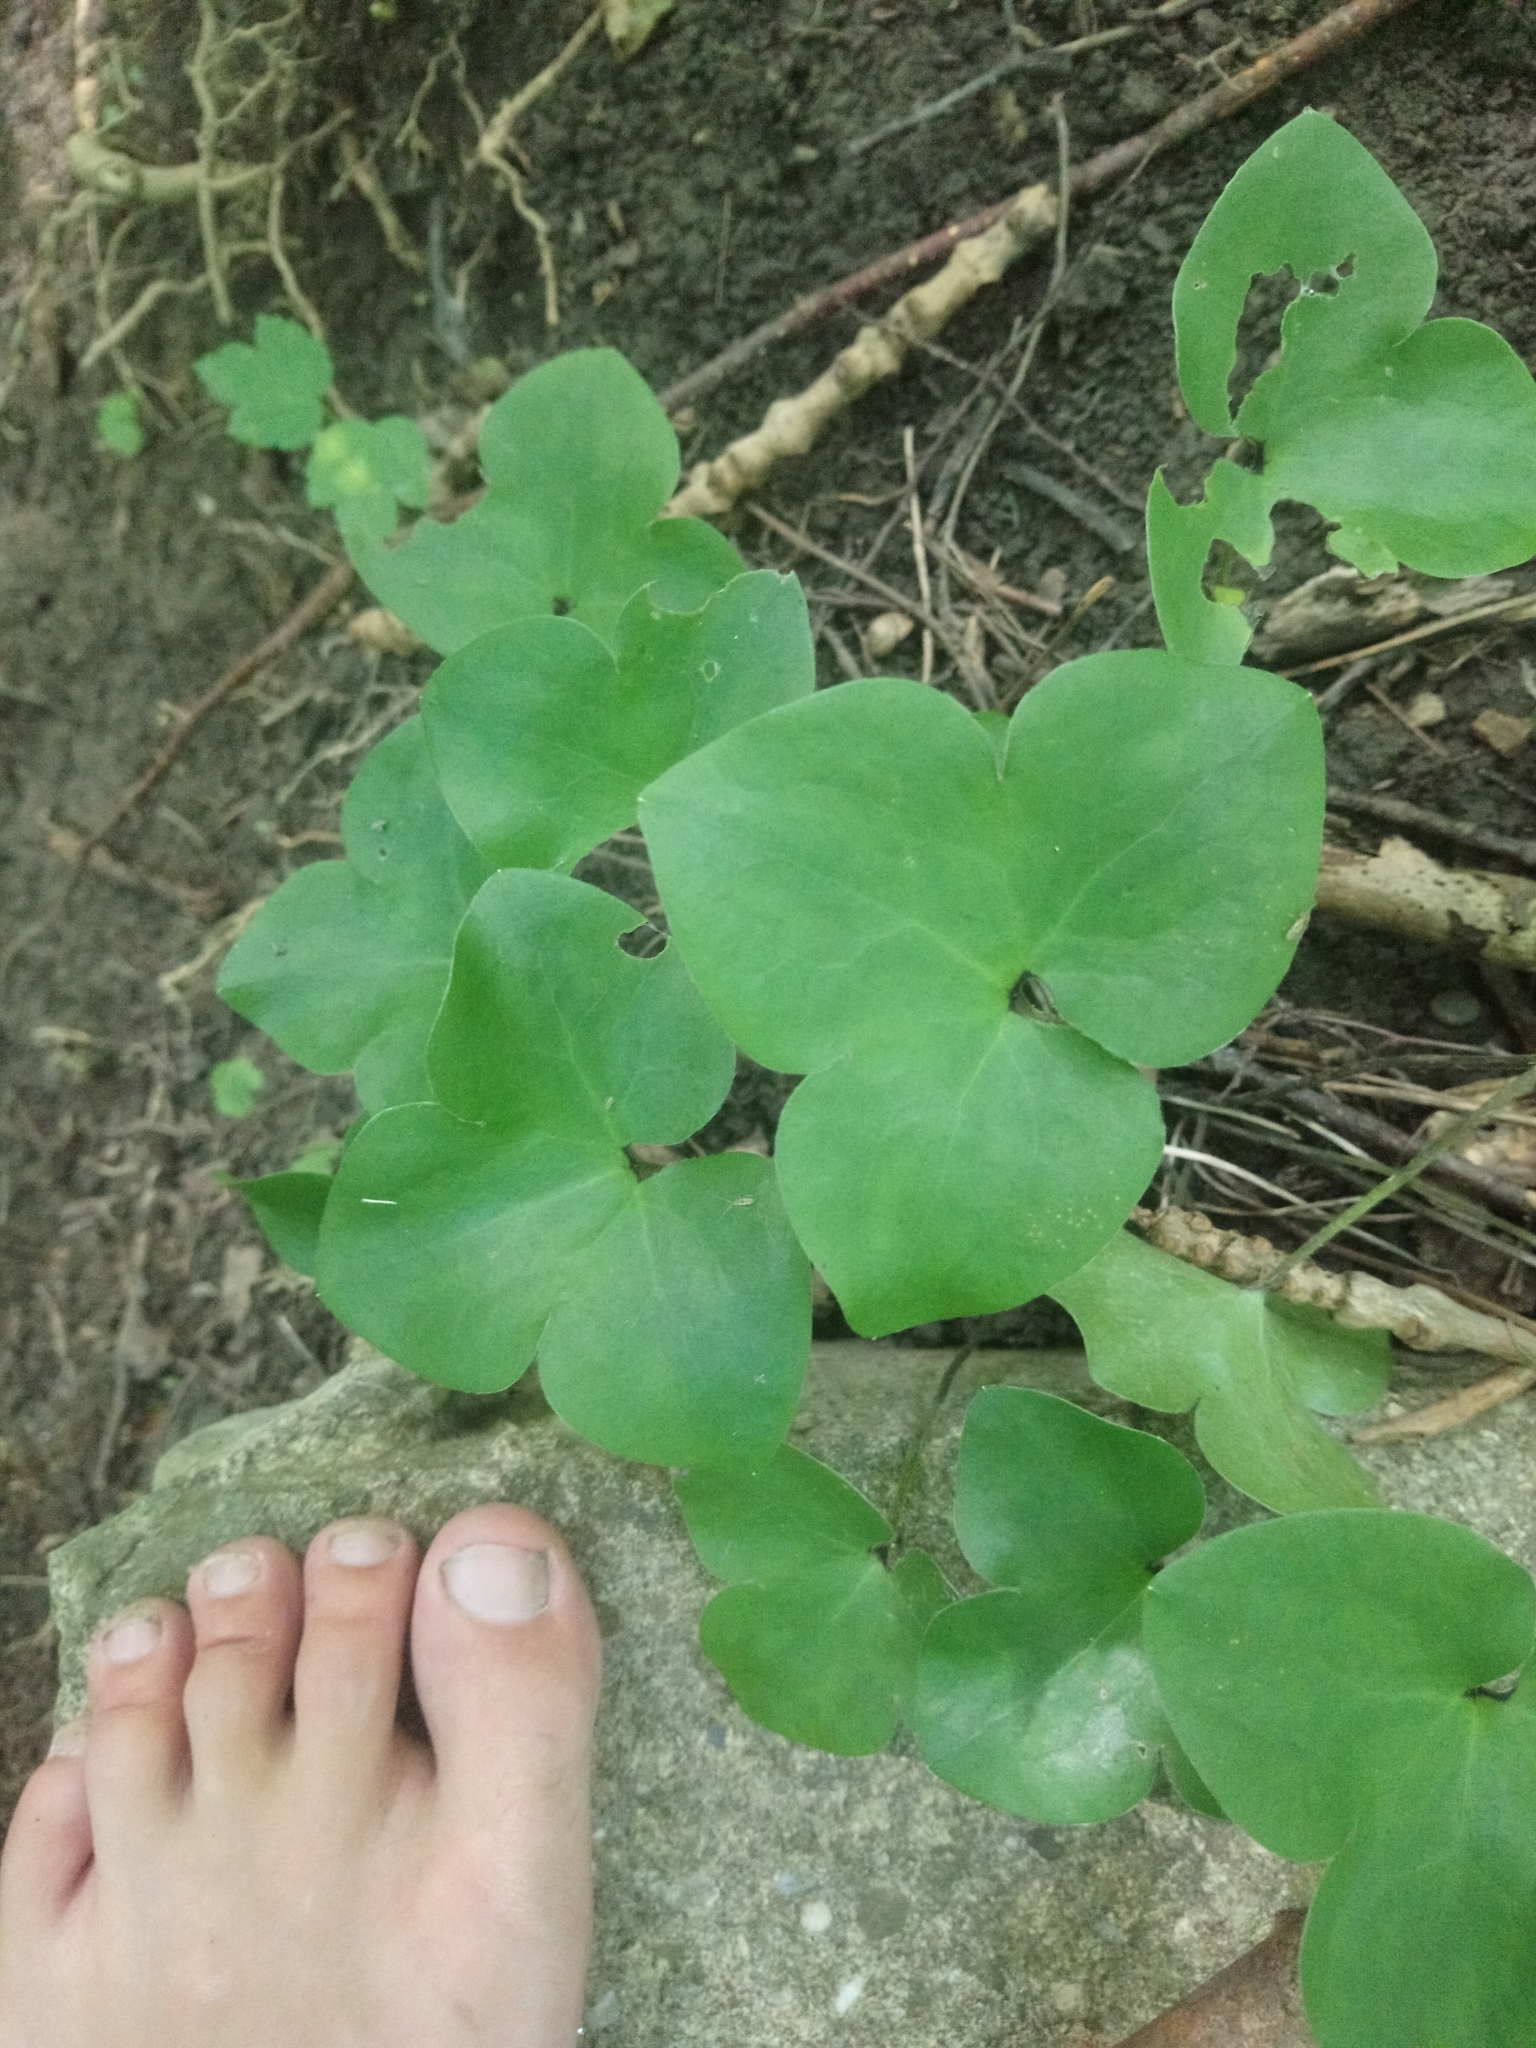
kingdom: Plantae
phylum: Tracheophyta
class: Magnoliopsida
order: Ranunculales
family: Ranunculaceae
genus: Hepatica
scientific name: Hepatica nobilis
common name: Liverleaf
